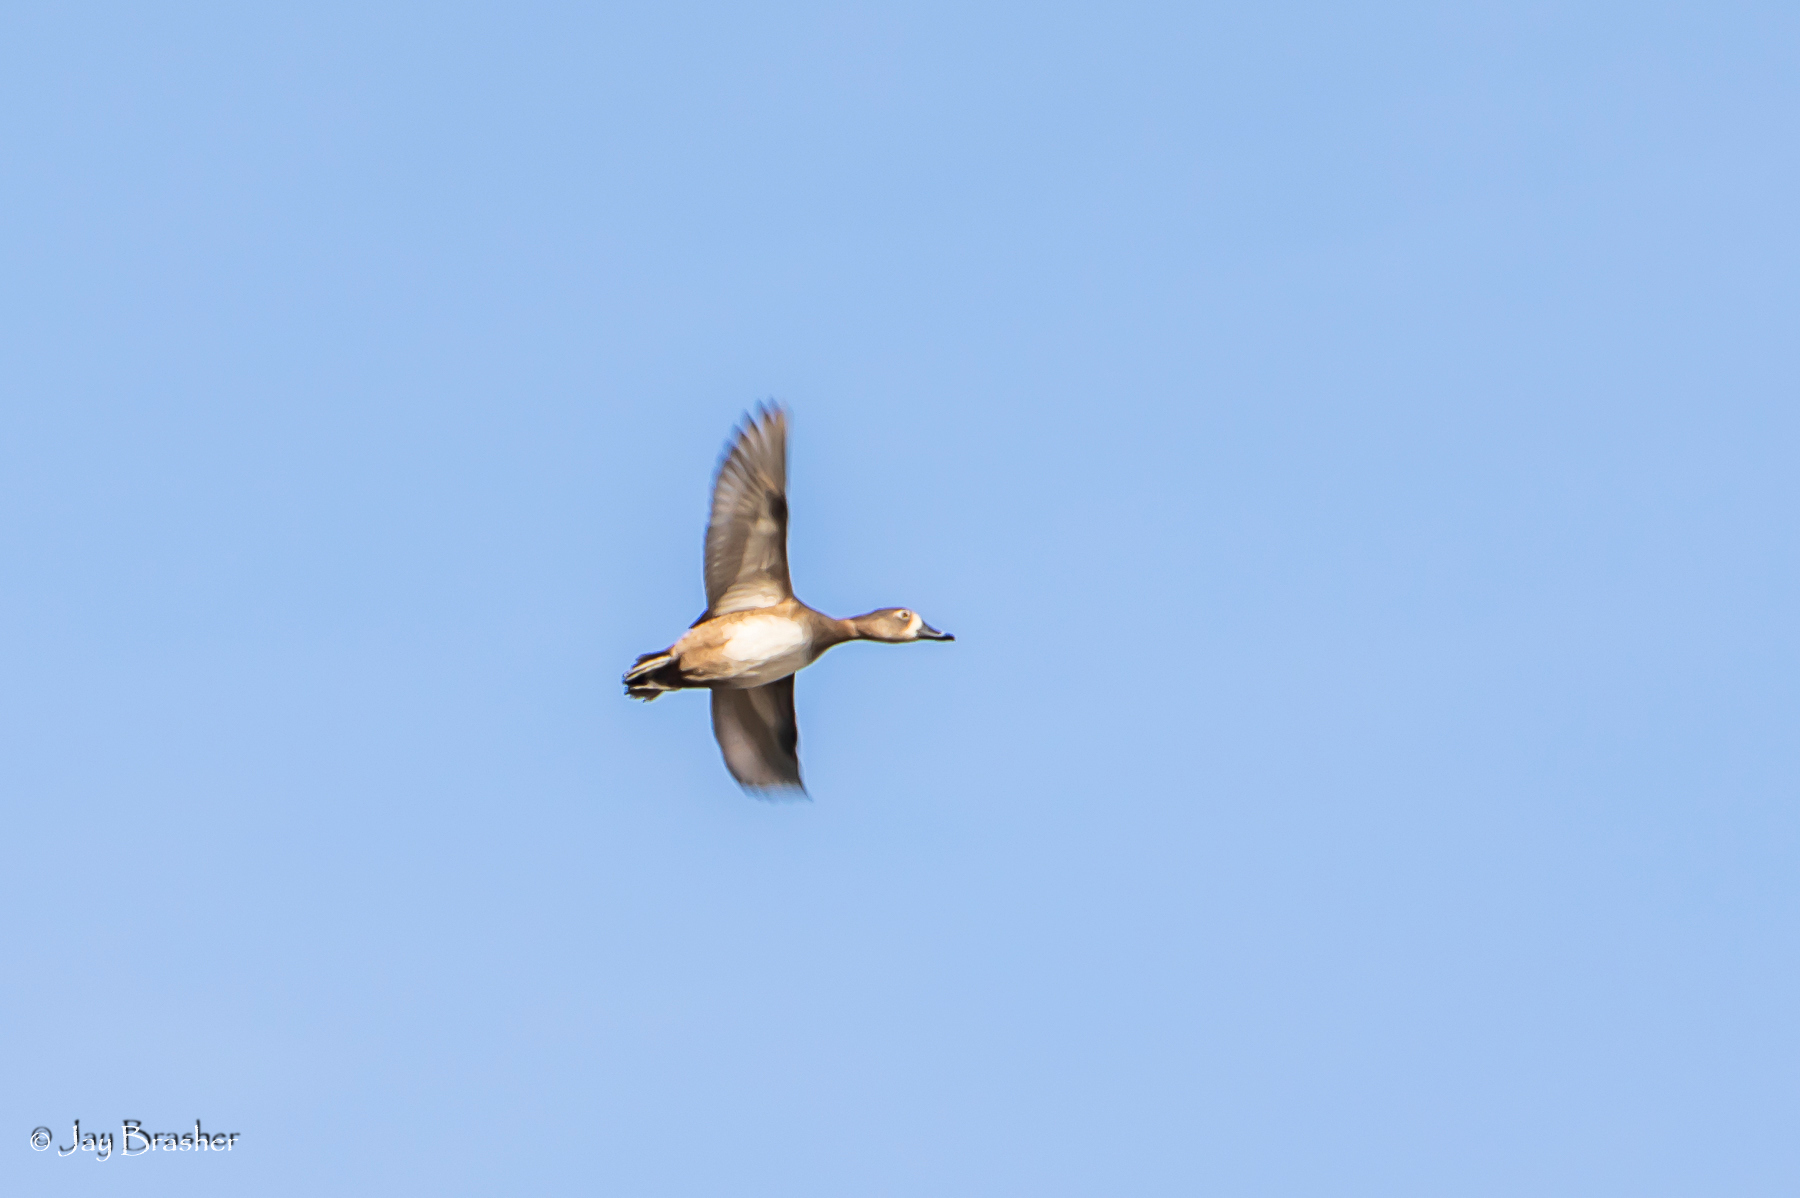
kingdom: Animalia
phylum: Chordata
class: Aves
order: Anseriformes
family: Anatidae
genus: Aythya
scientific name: Aythya collaris
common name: Ring-necked duck
